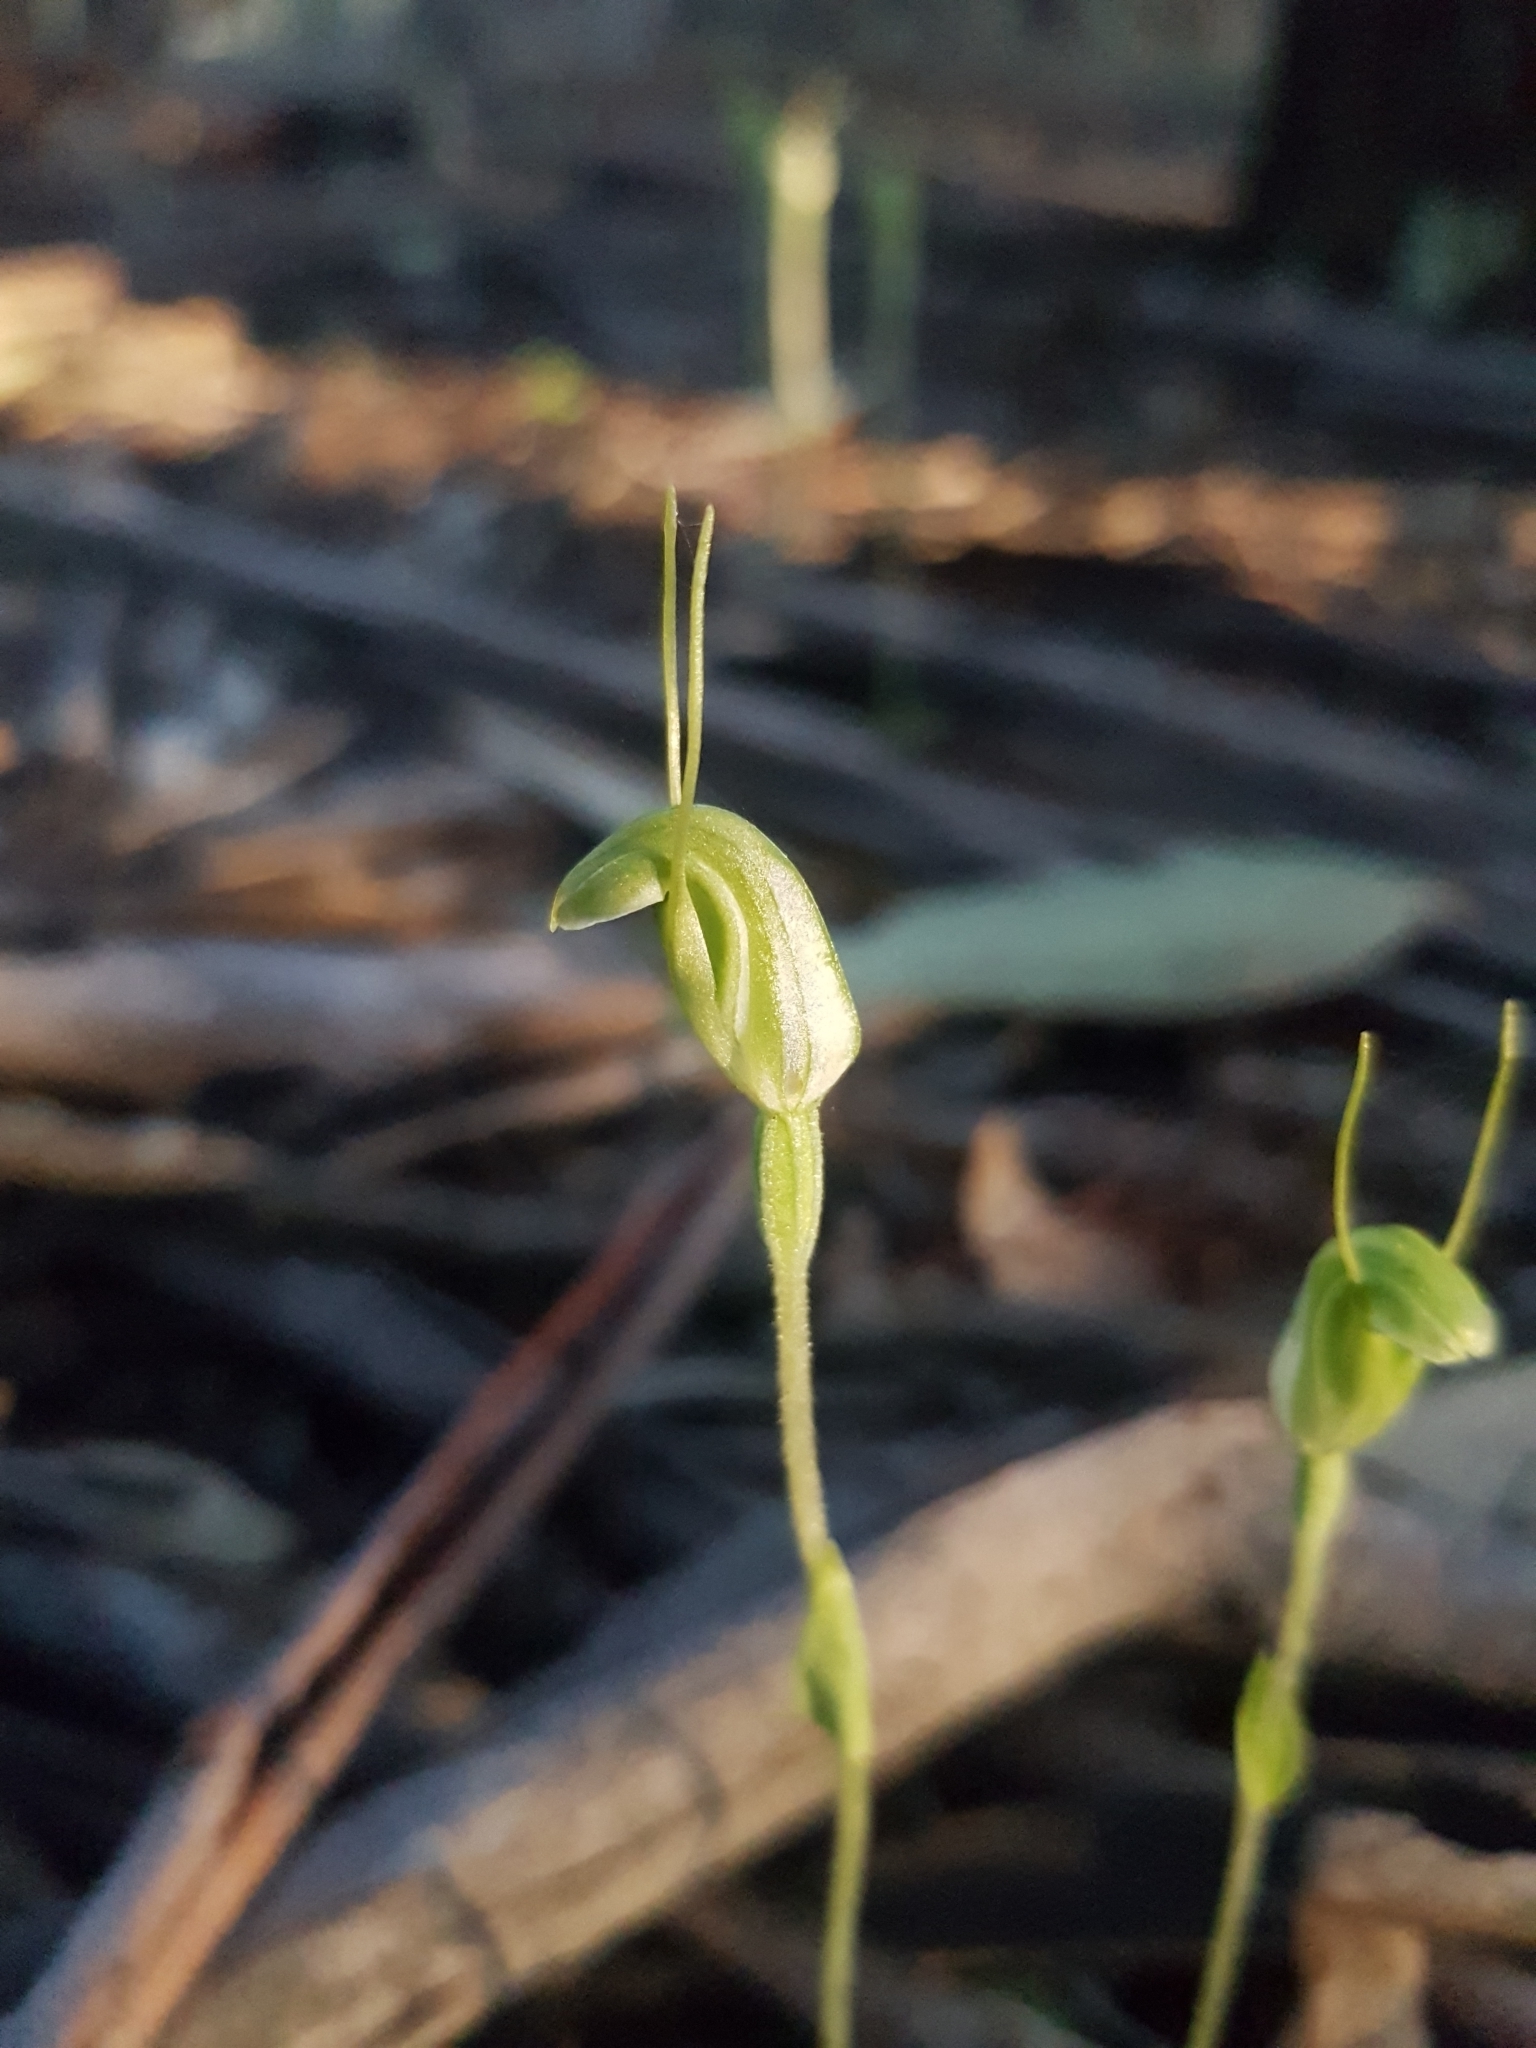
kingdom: Plantae
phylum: Tracheophyta
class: Liliopsida
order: Asparagales
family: Orchidaceae
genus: Pterostylis
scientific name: Pterostylis nana
